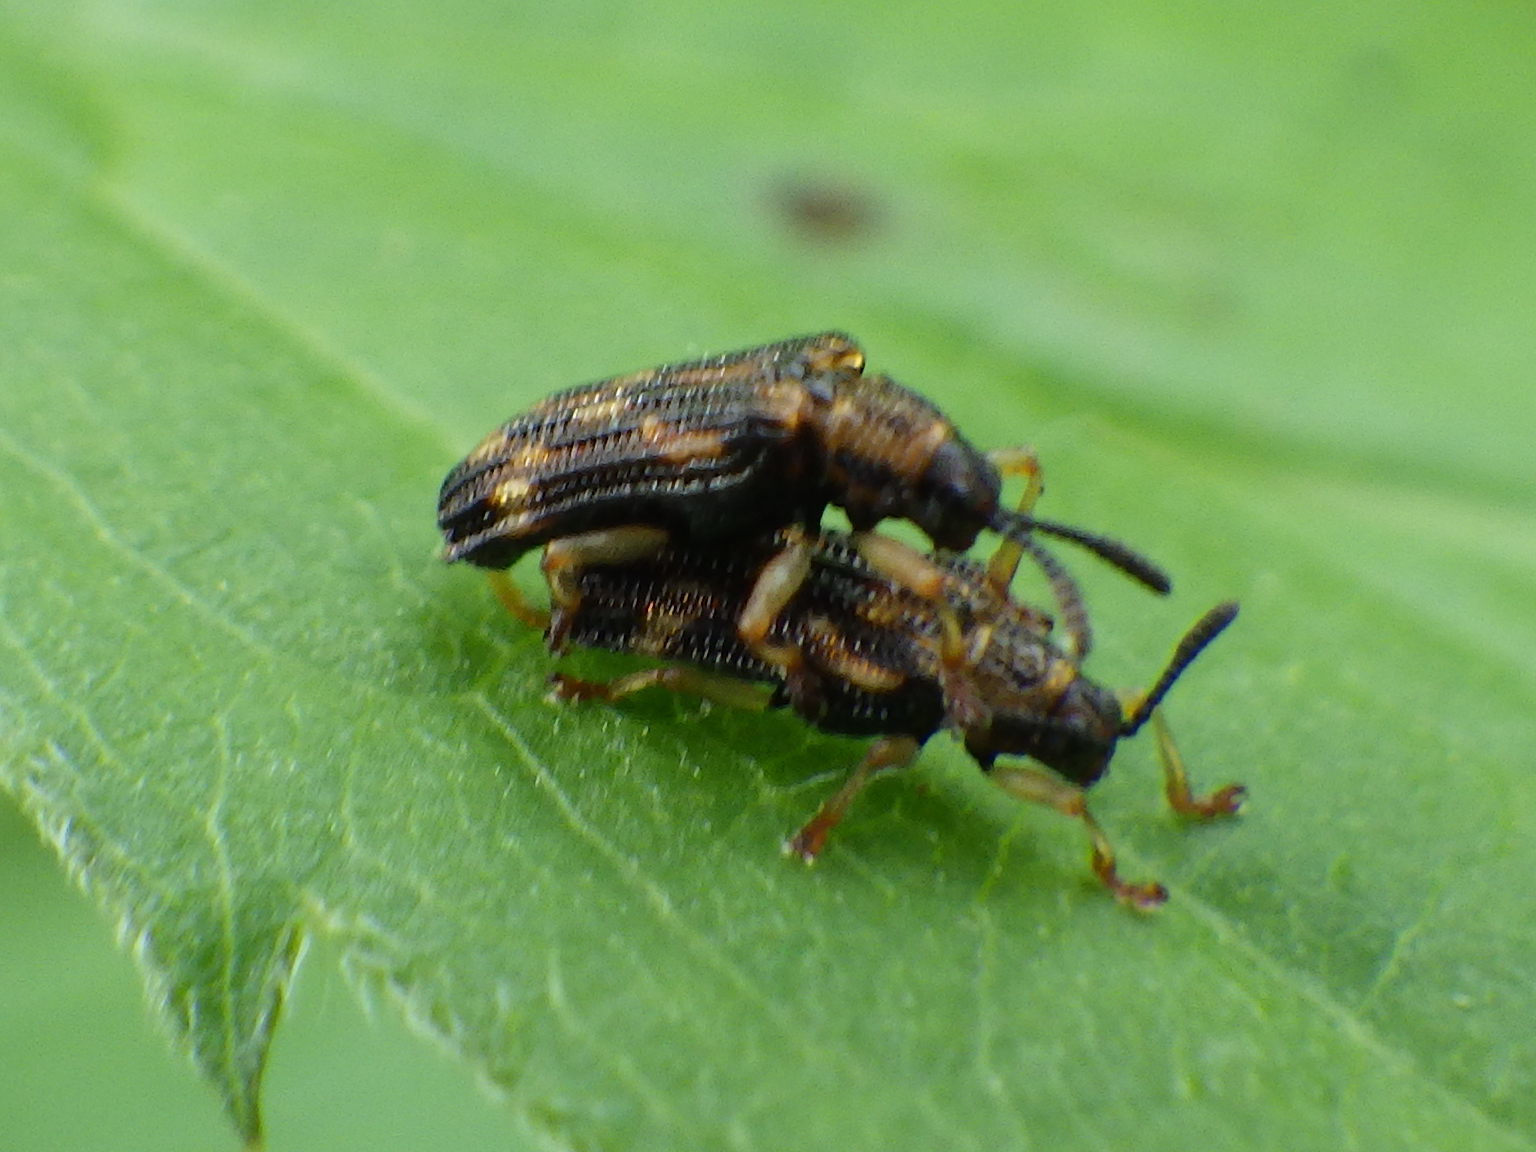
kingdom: Animalia
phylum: Arthropoda
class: Insecta
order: Coleoptera
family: Chrysomelidae
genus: Sumitrosis
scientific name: Sumitrosis inaequalis
